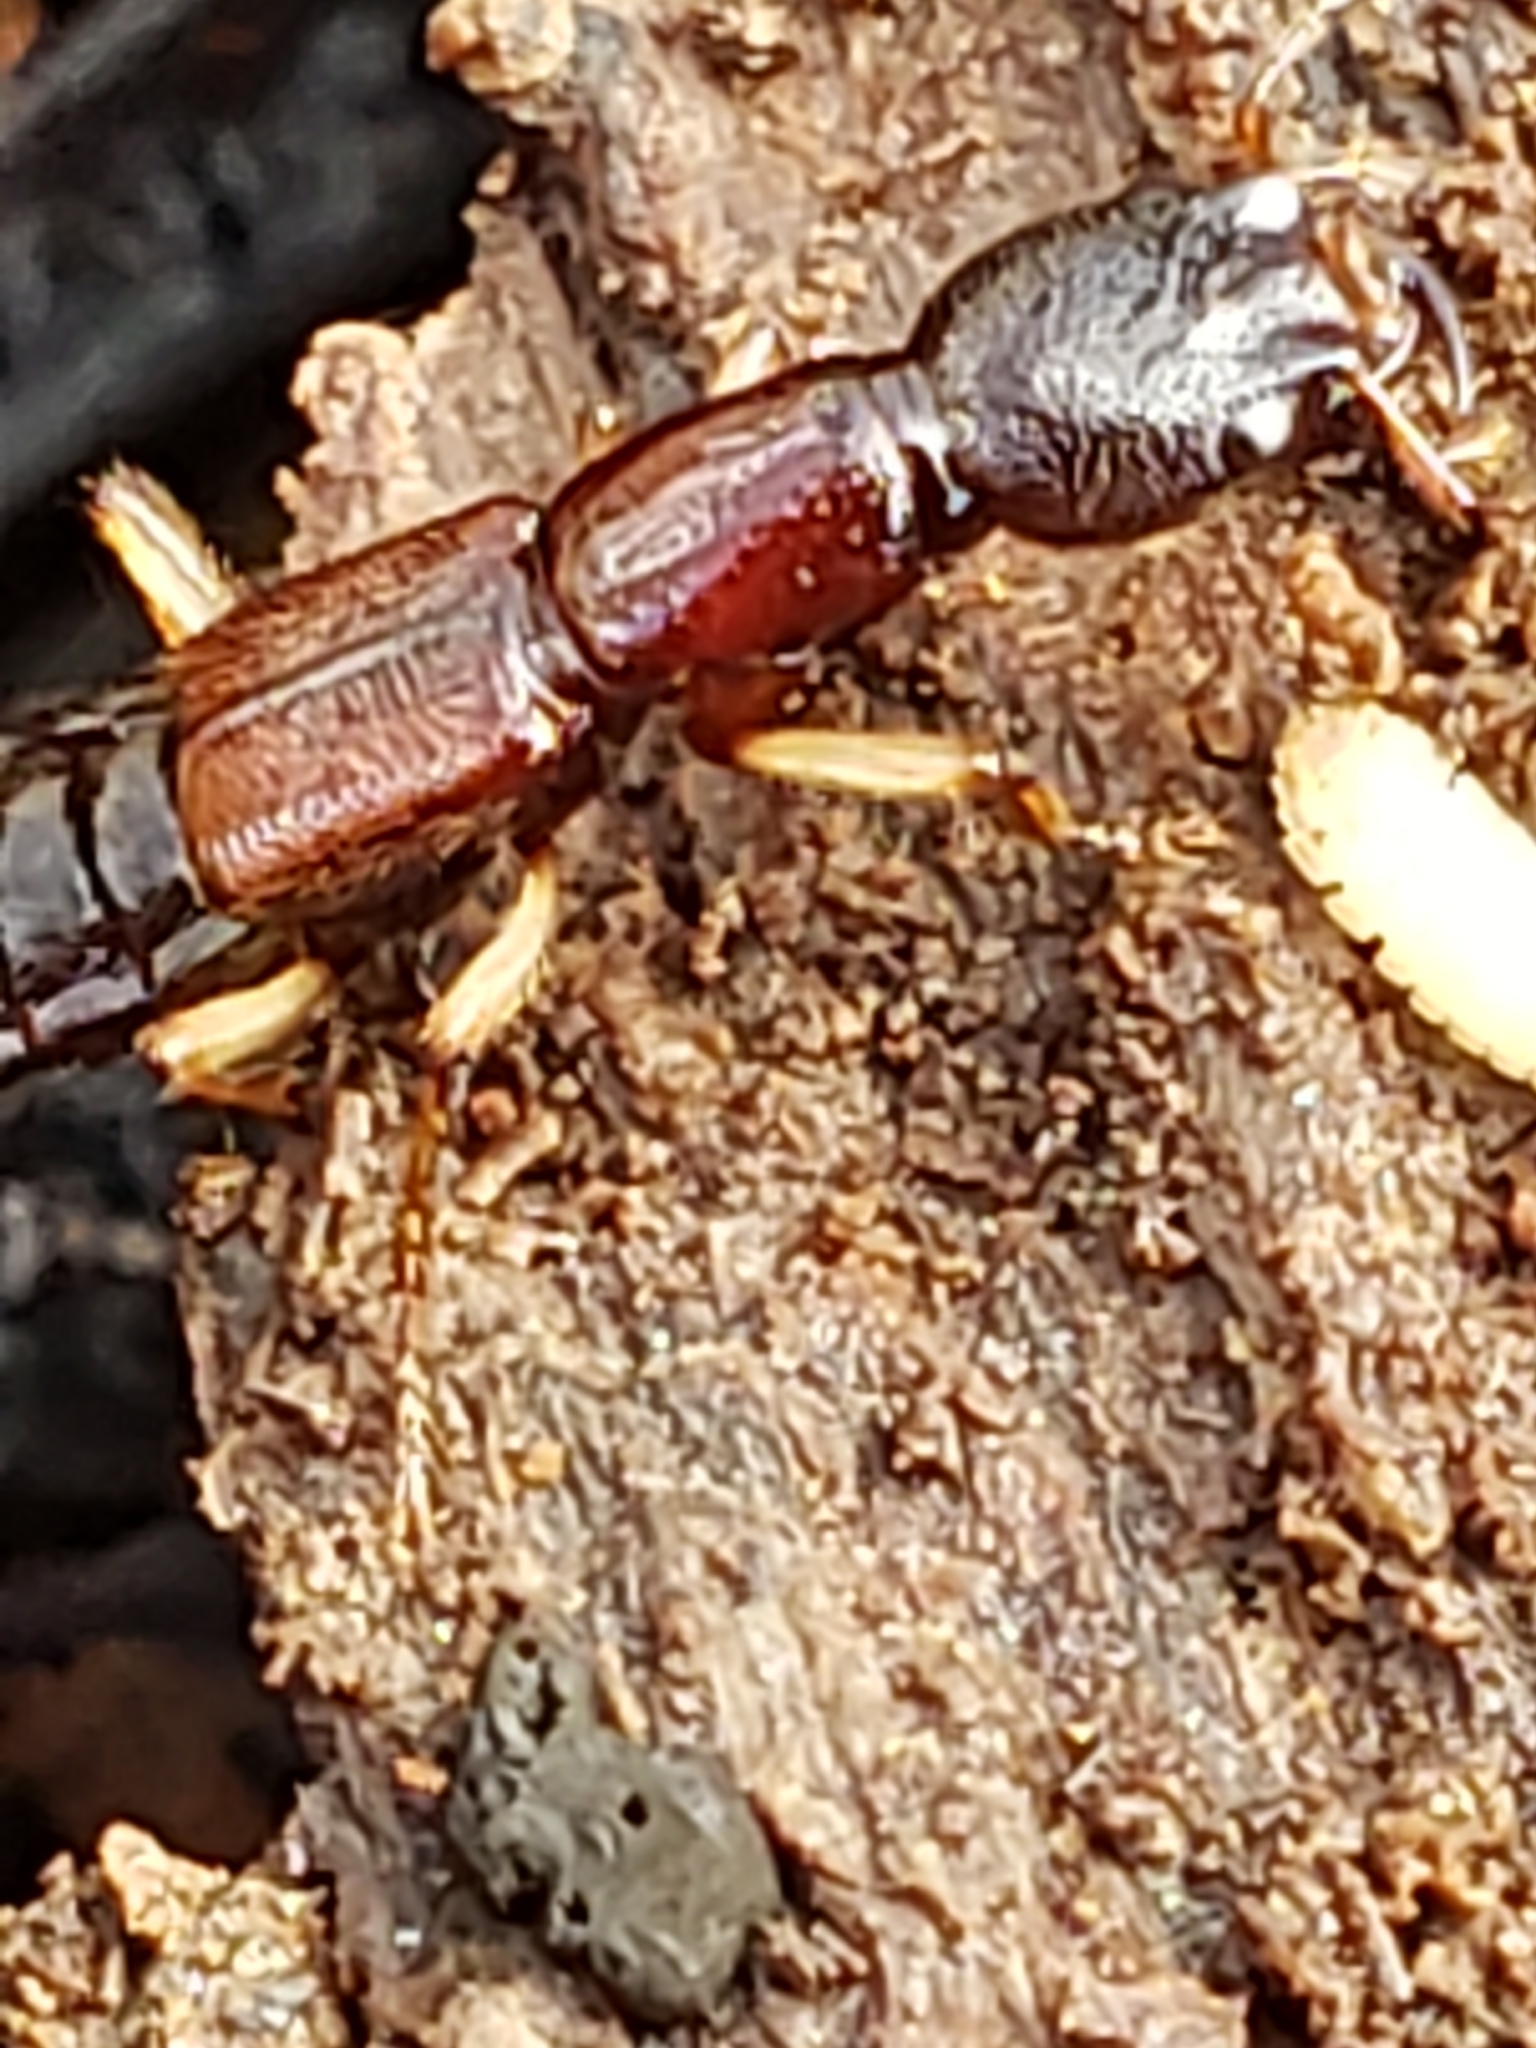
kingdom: Animalia
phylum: Arthropoda
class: Insecta
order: Coleoptera
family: Staphylinidae
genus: Homaeotarsus
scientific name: Homaeotarsus bicolor
